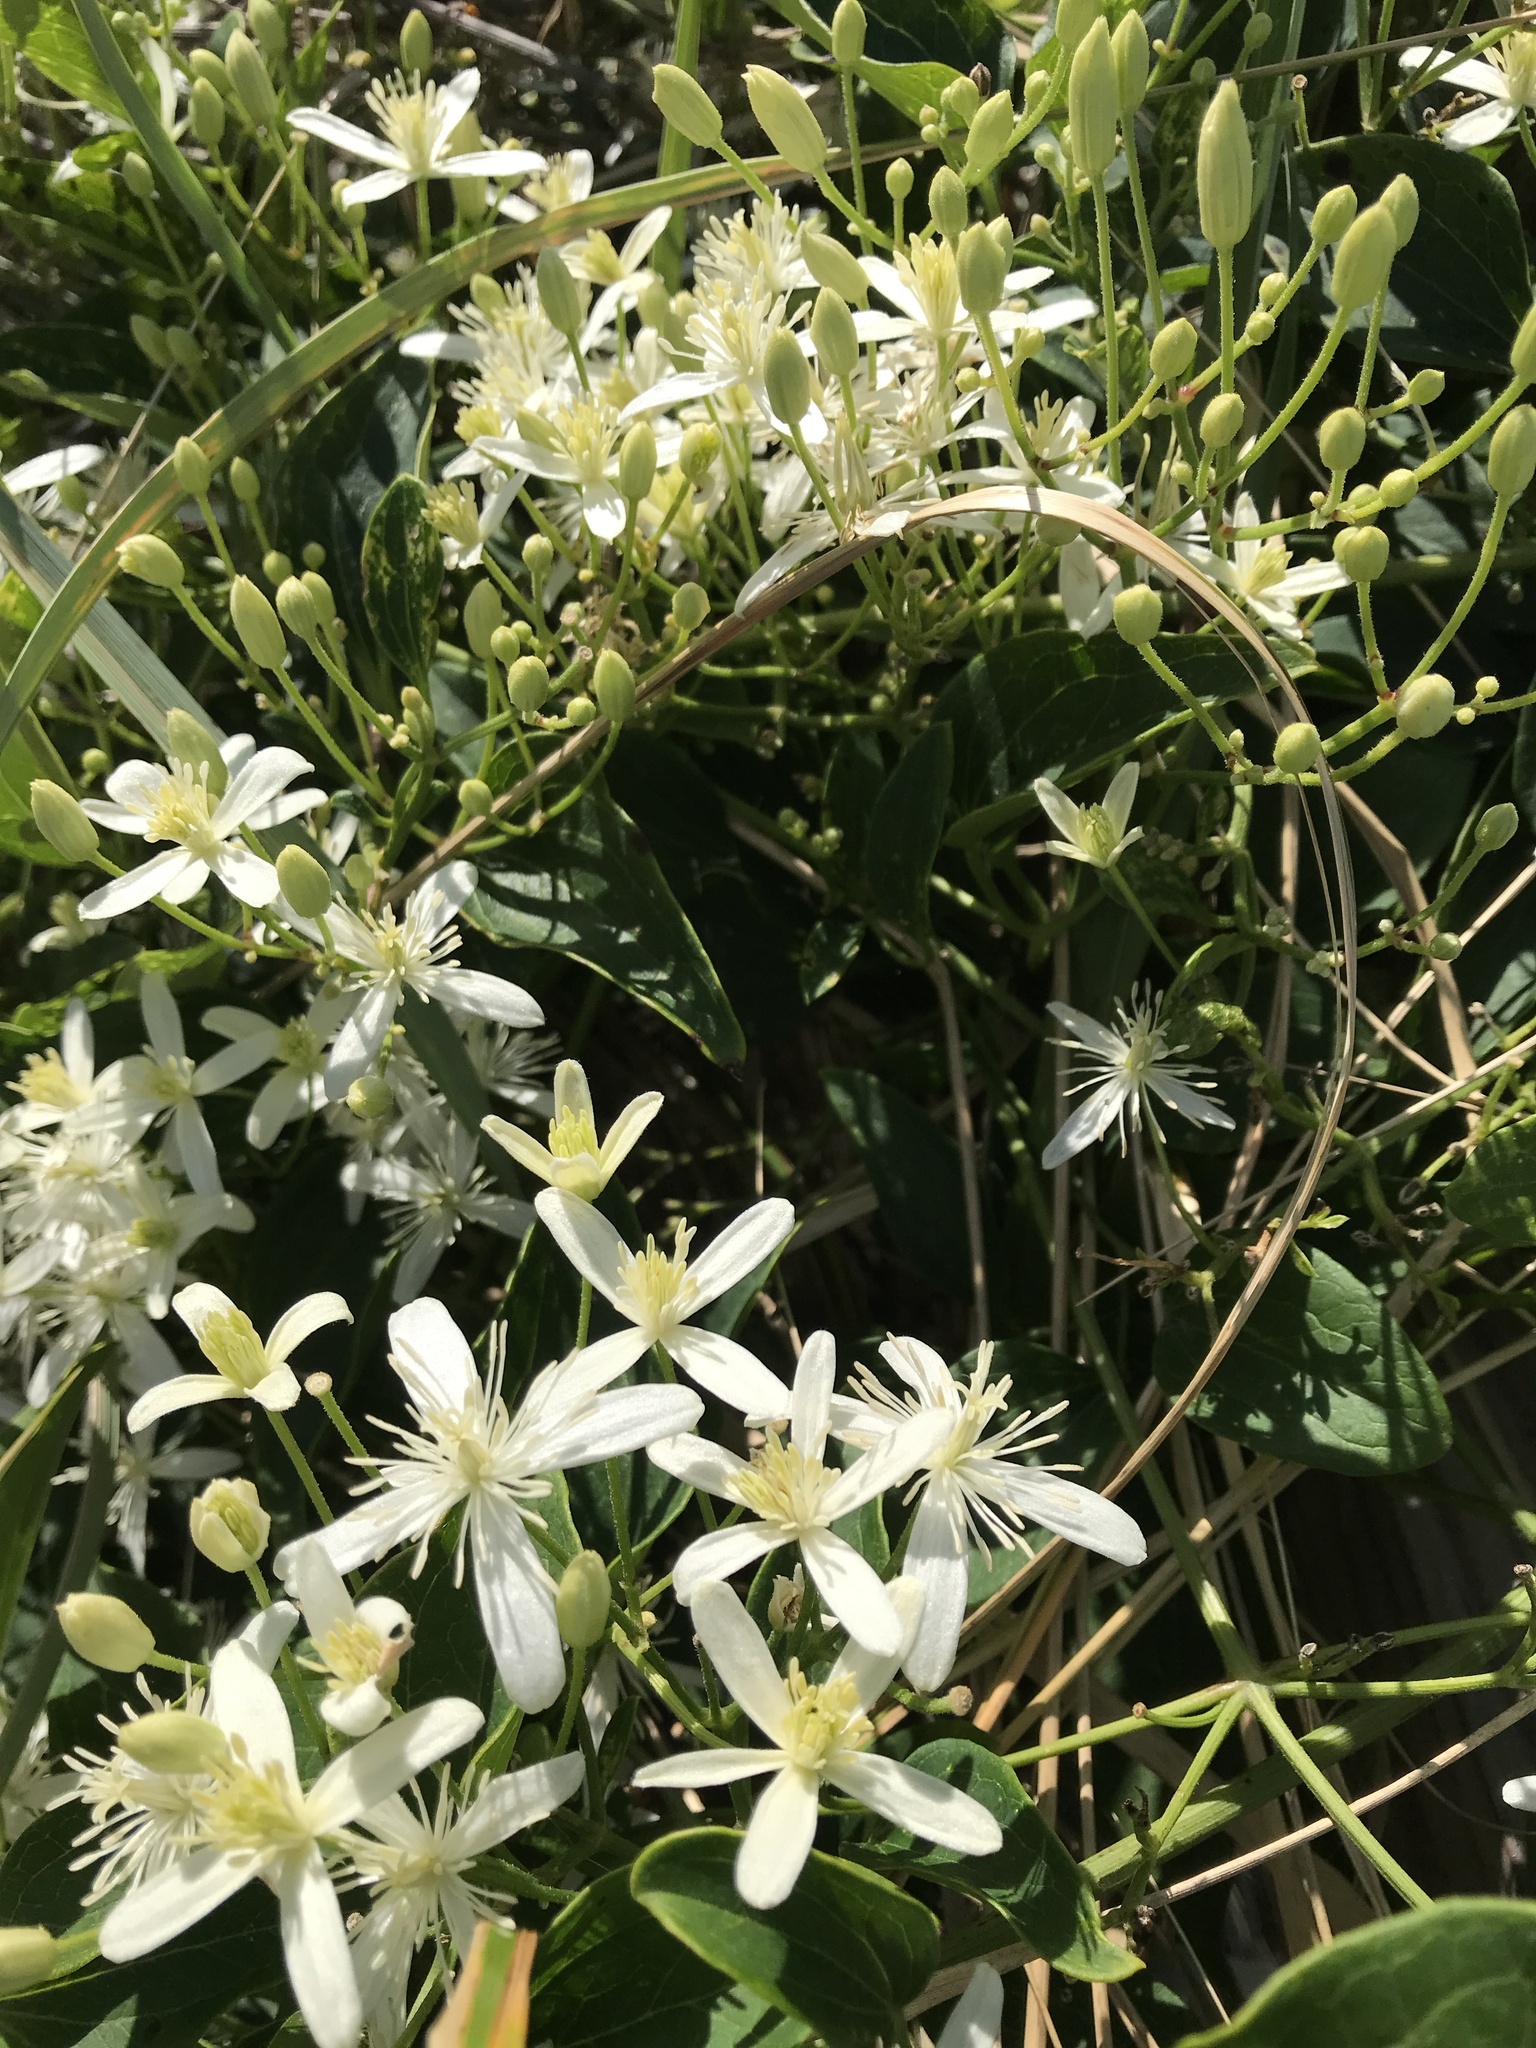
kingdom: Plantae
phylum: Tracheophyta
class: Magnoliopsida
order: Ranunculales
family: Ranunculaceae
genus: Clematis
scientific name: Clematis terniflora
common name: Sweet autumn clematis
